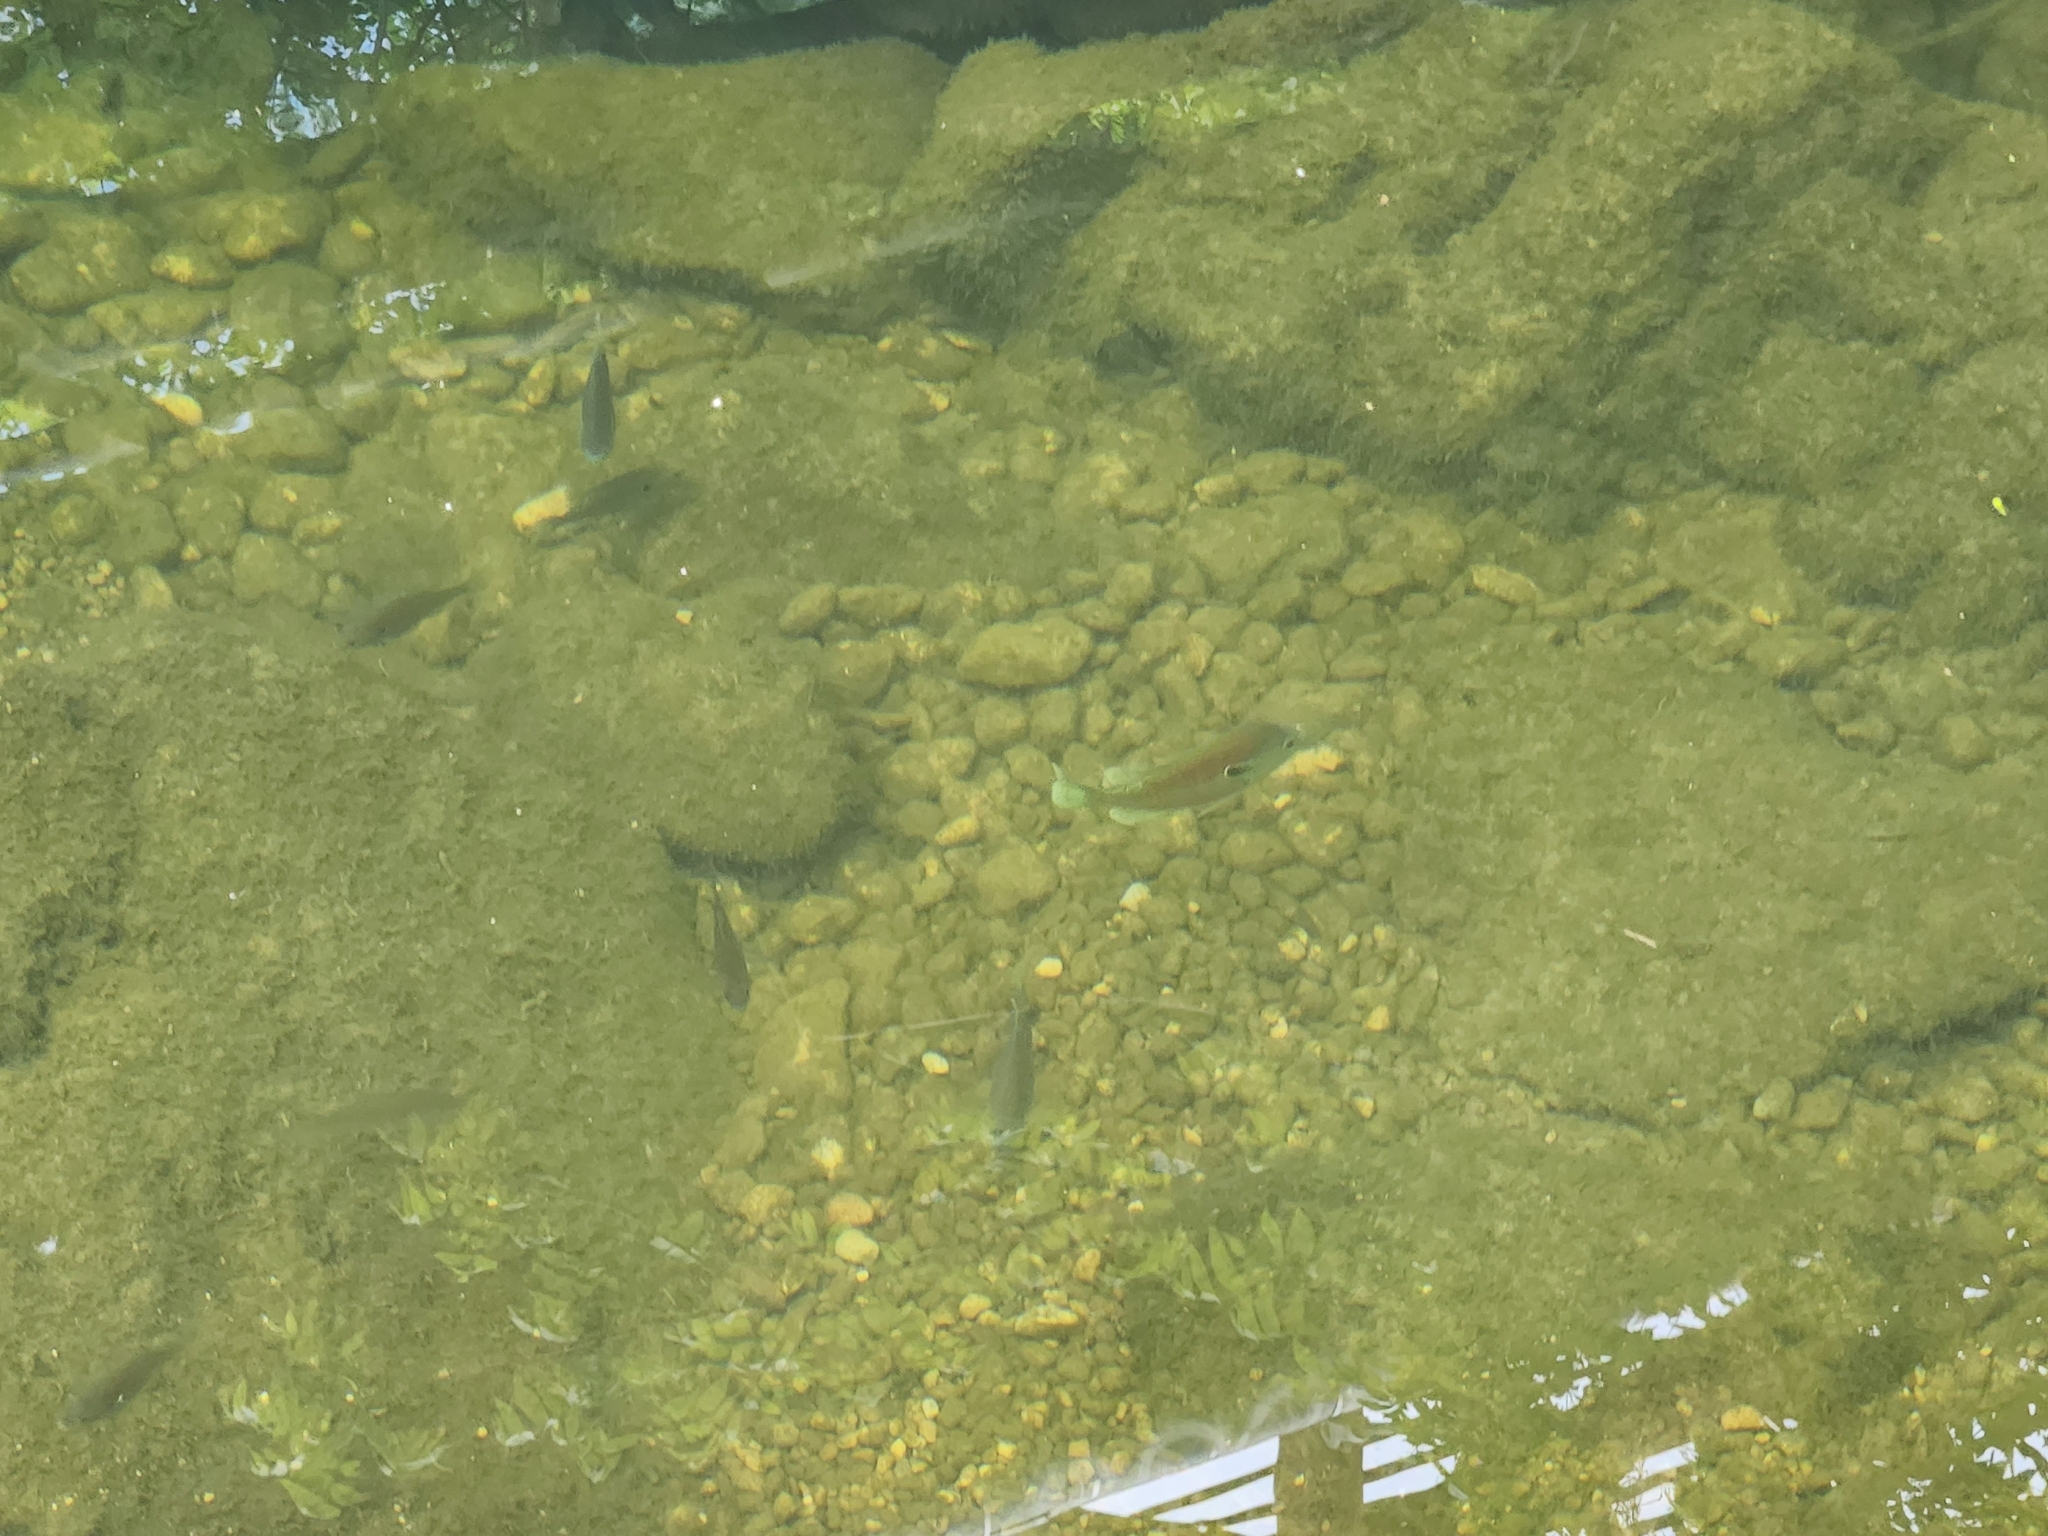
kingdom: Animalia
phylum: Chordata
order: Perciformes
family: Centrarchidae
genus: Lepomis
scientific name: Lepomis aquilensis
